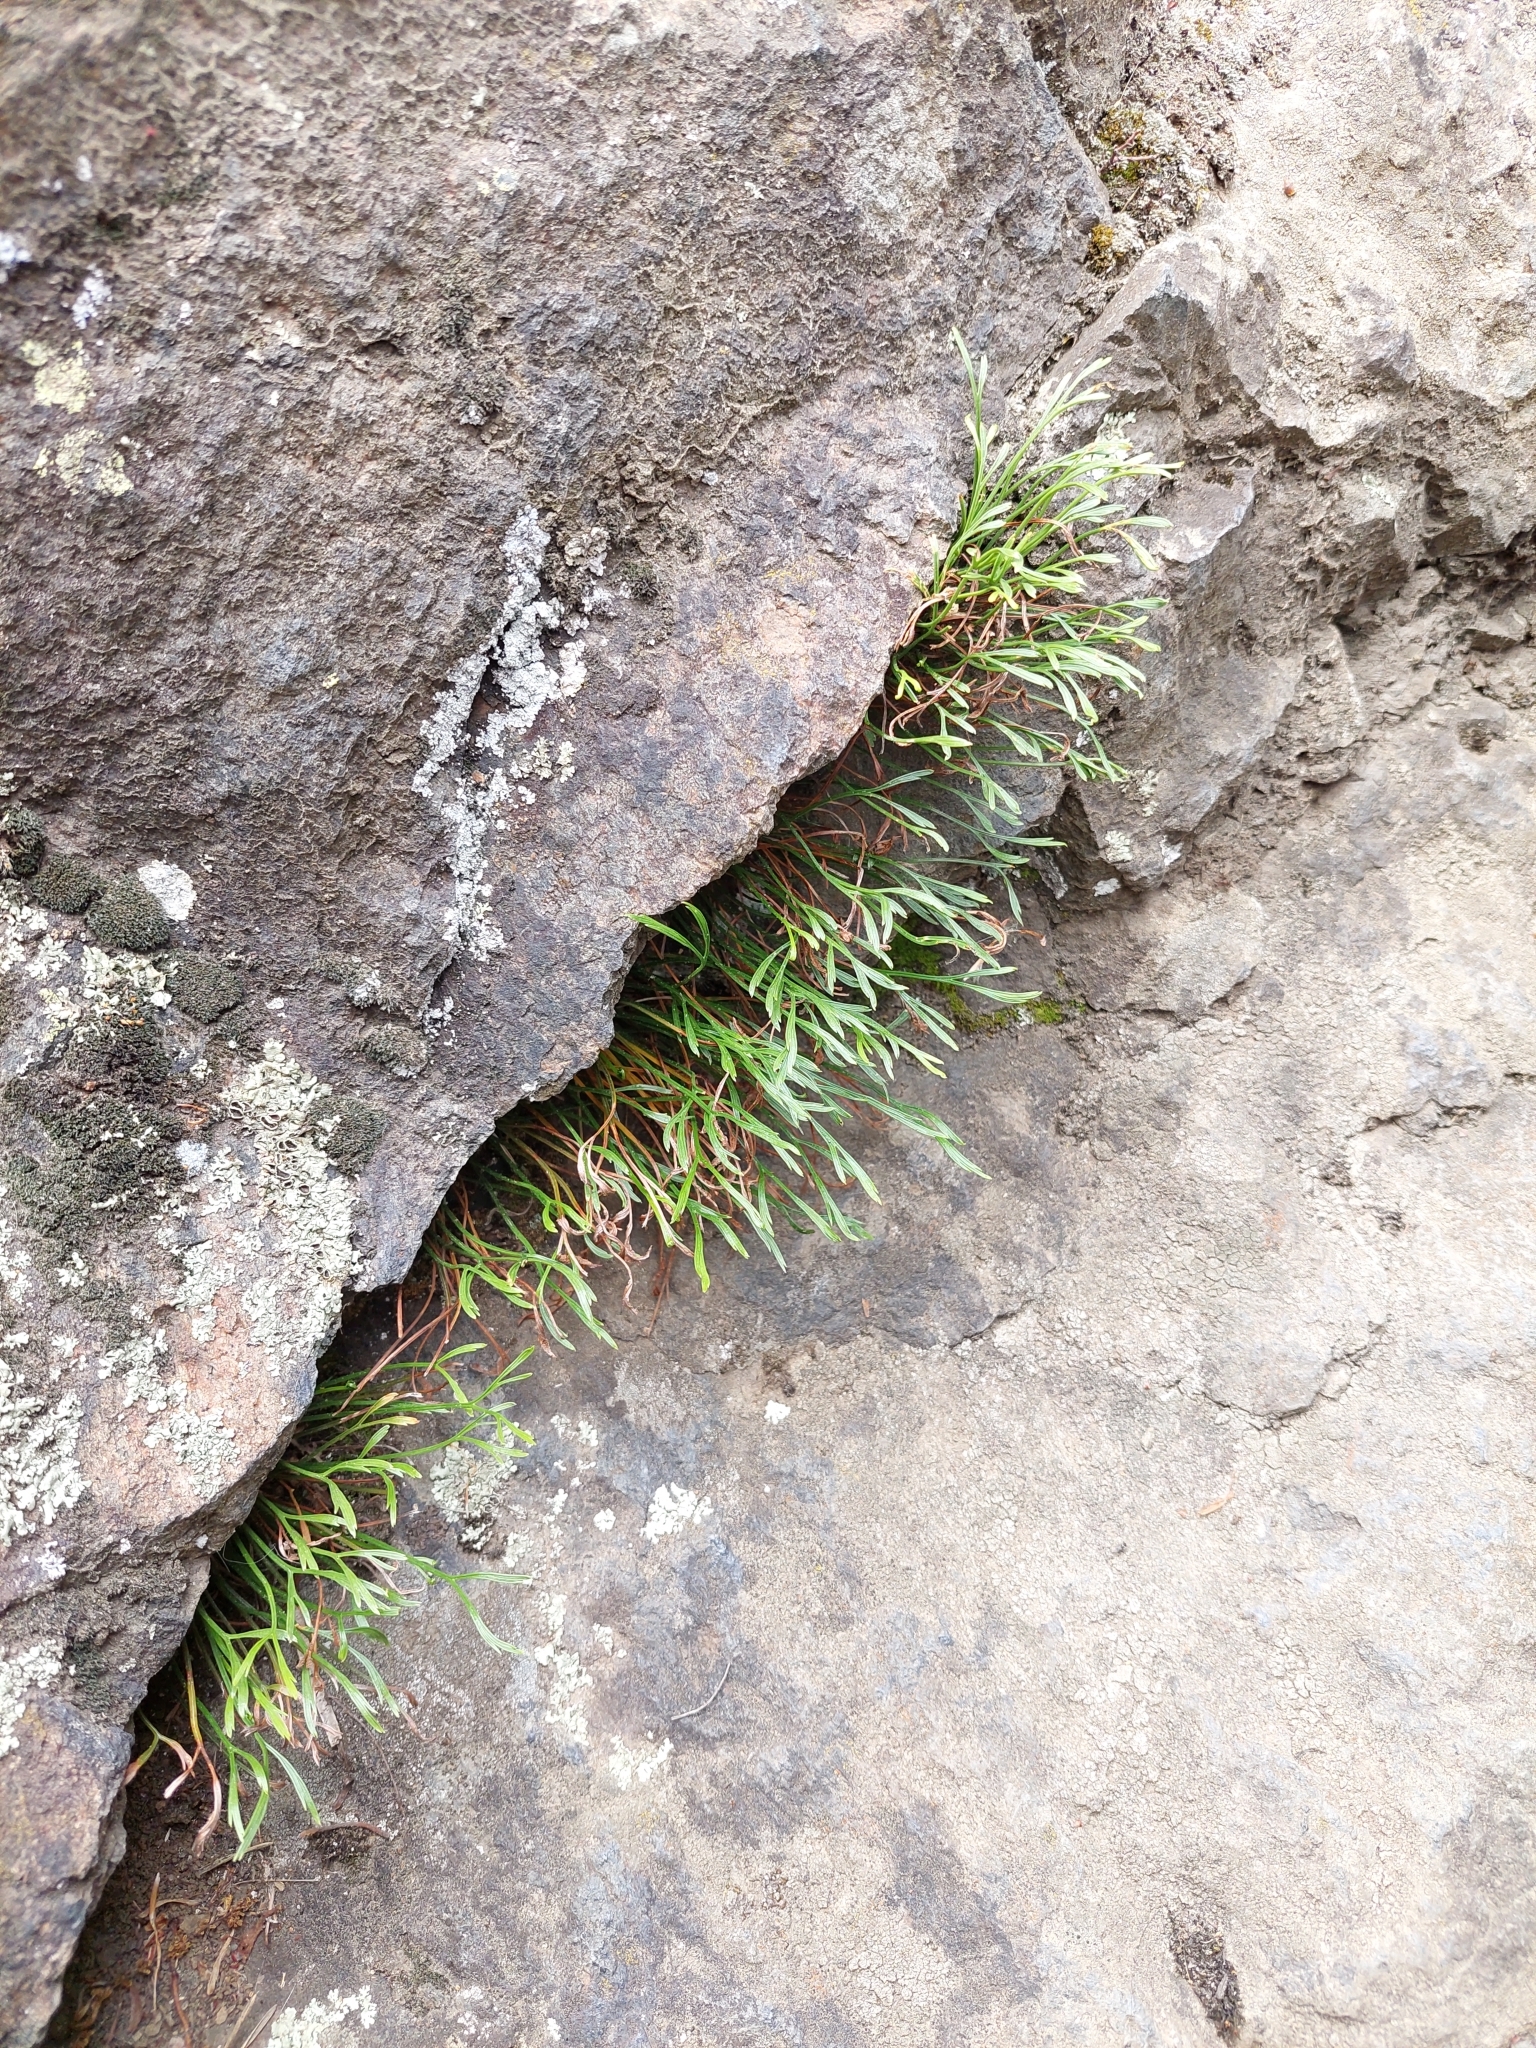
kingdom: Plantae
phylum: Tracheophyta
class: Polypodiopsida
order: Polypodiales
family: Aspleniaceae
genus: Asplenium
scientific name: Asplenium septentrionale
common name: Forked spleenwort
